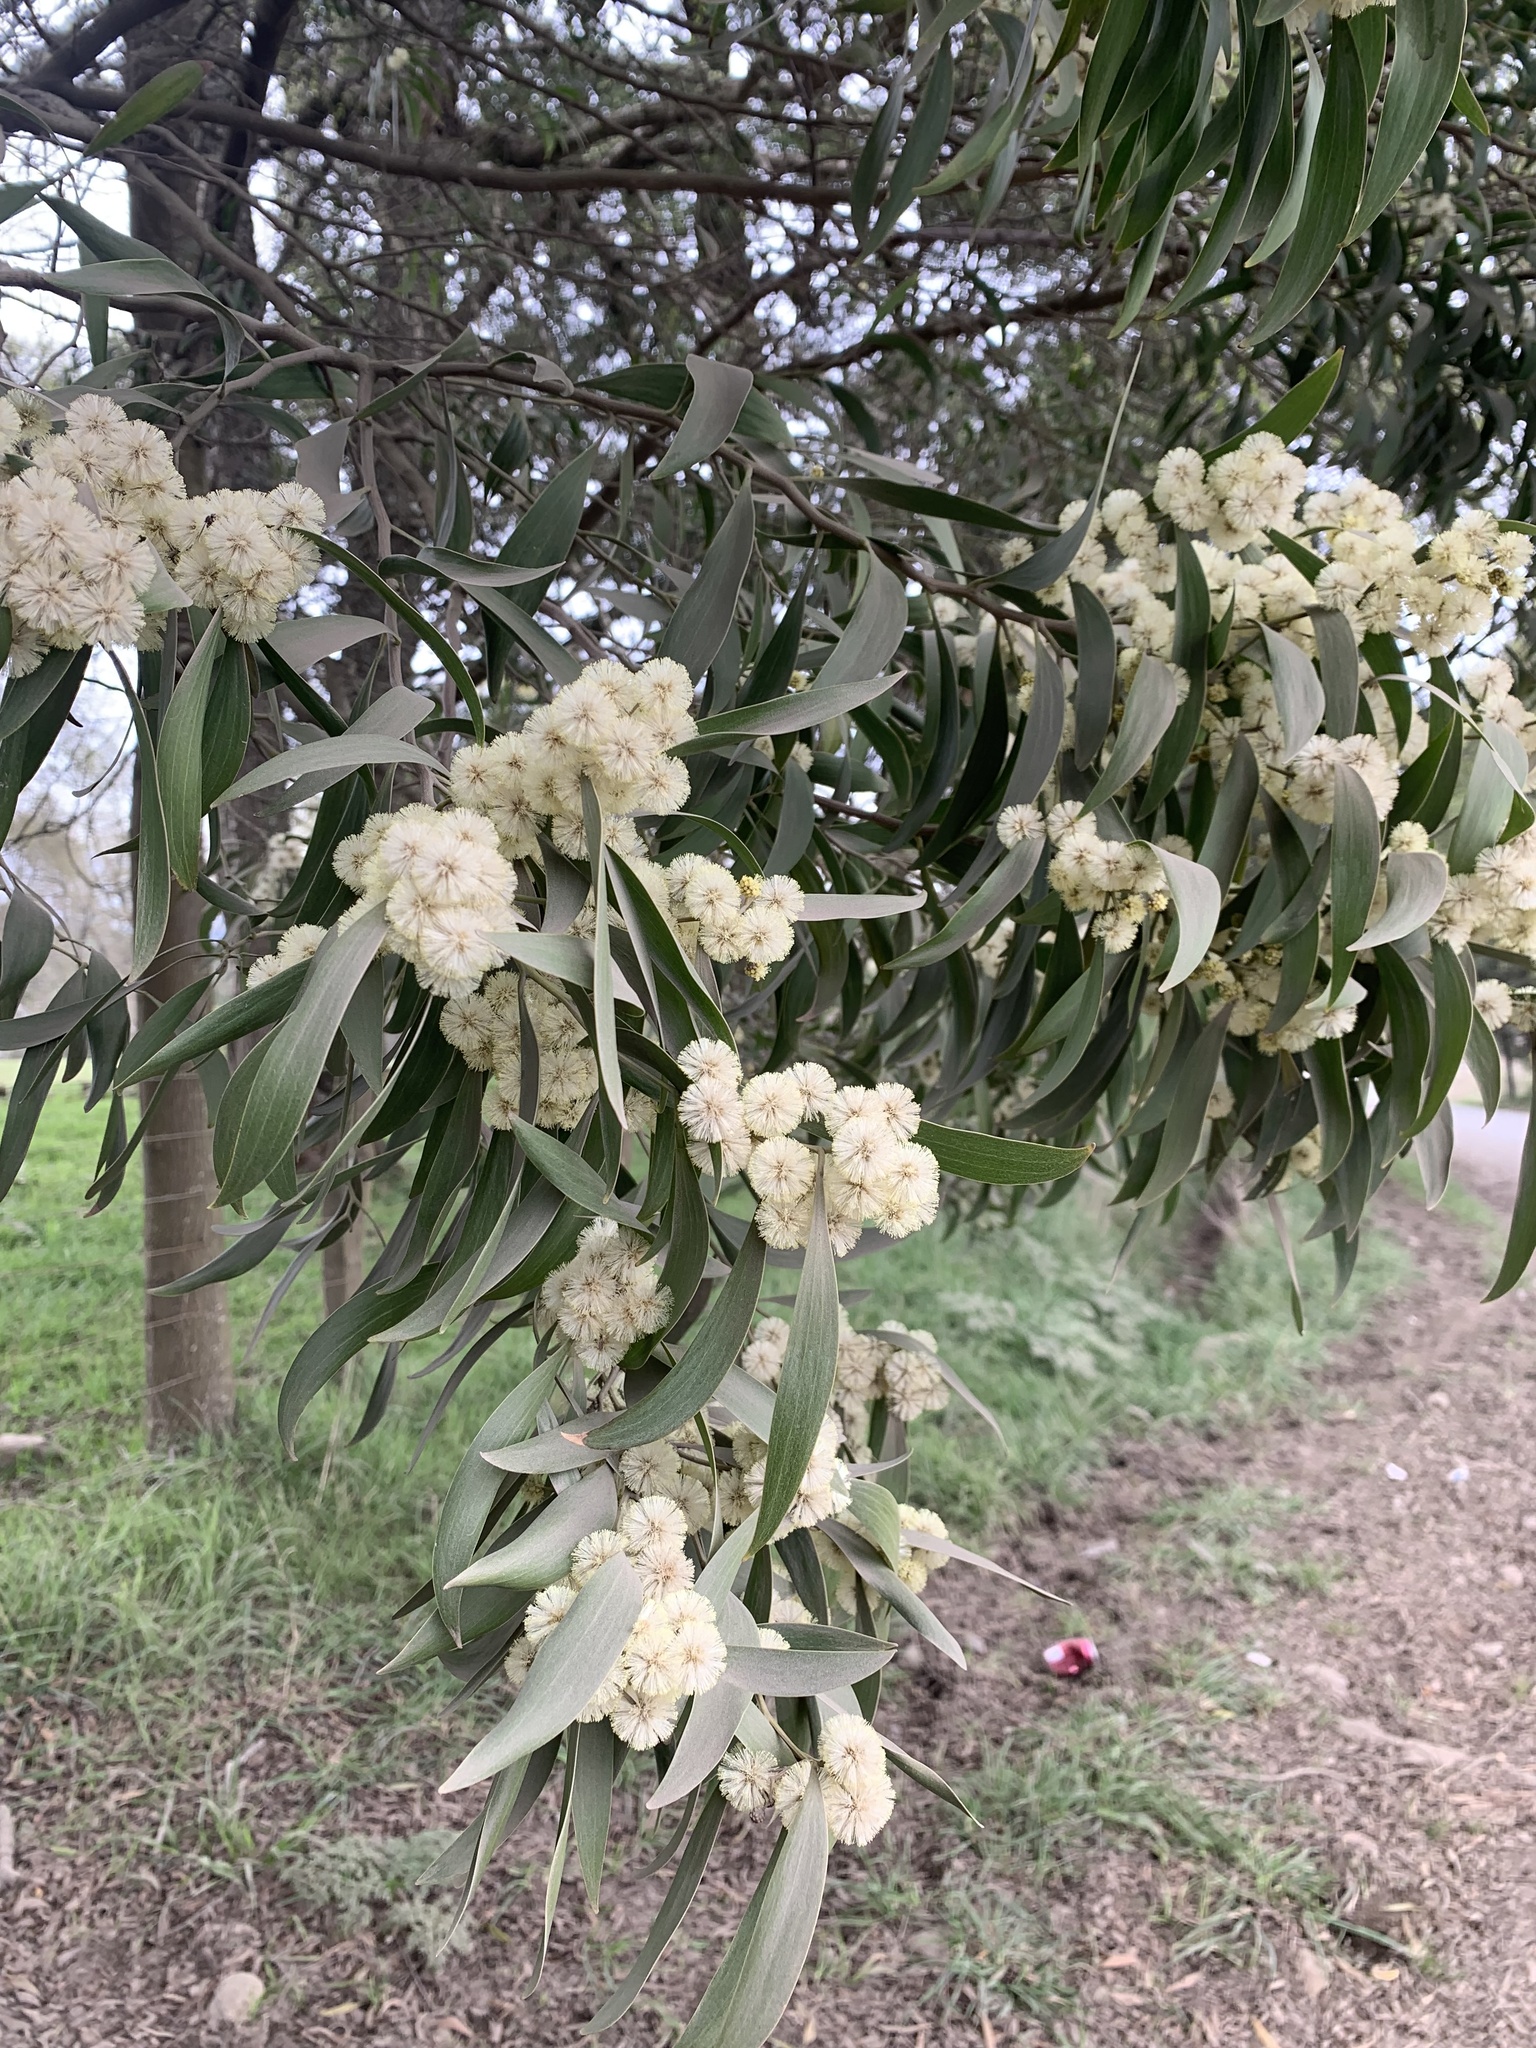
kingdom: Plantae
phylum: Tracheophyta
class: Magnoliopsida
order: Fabales
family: Fabaceae
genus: Acacia
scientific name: Acacia melanoxylon
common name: Blackwood
